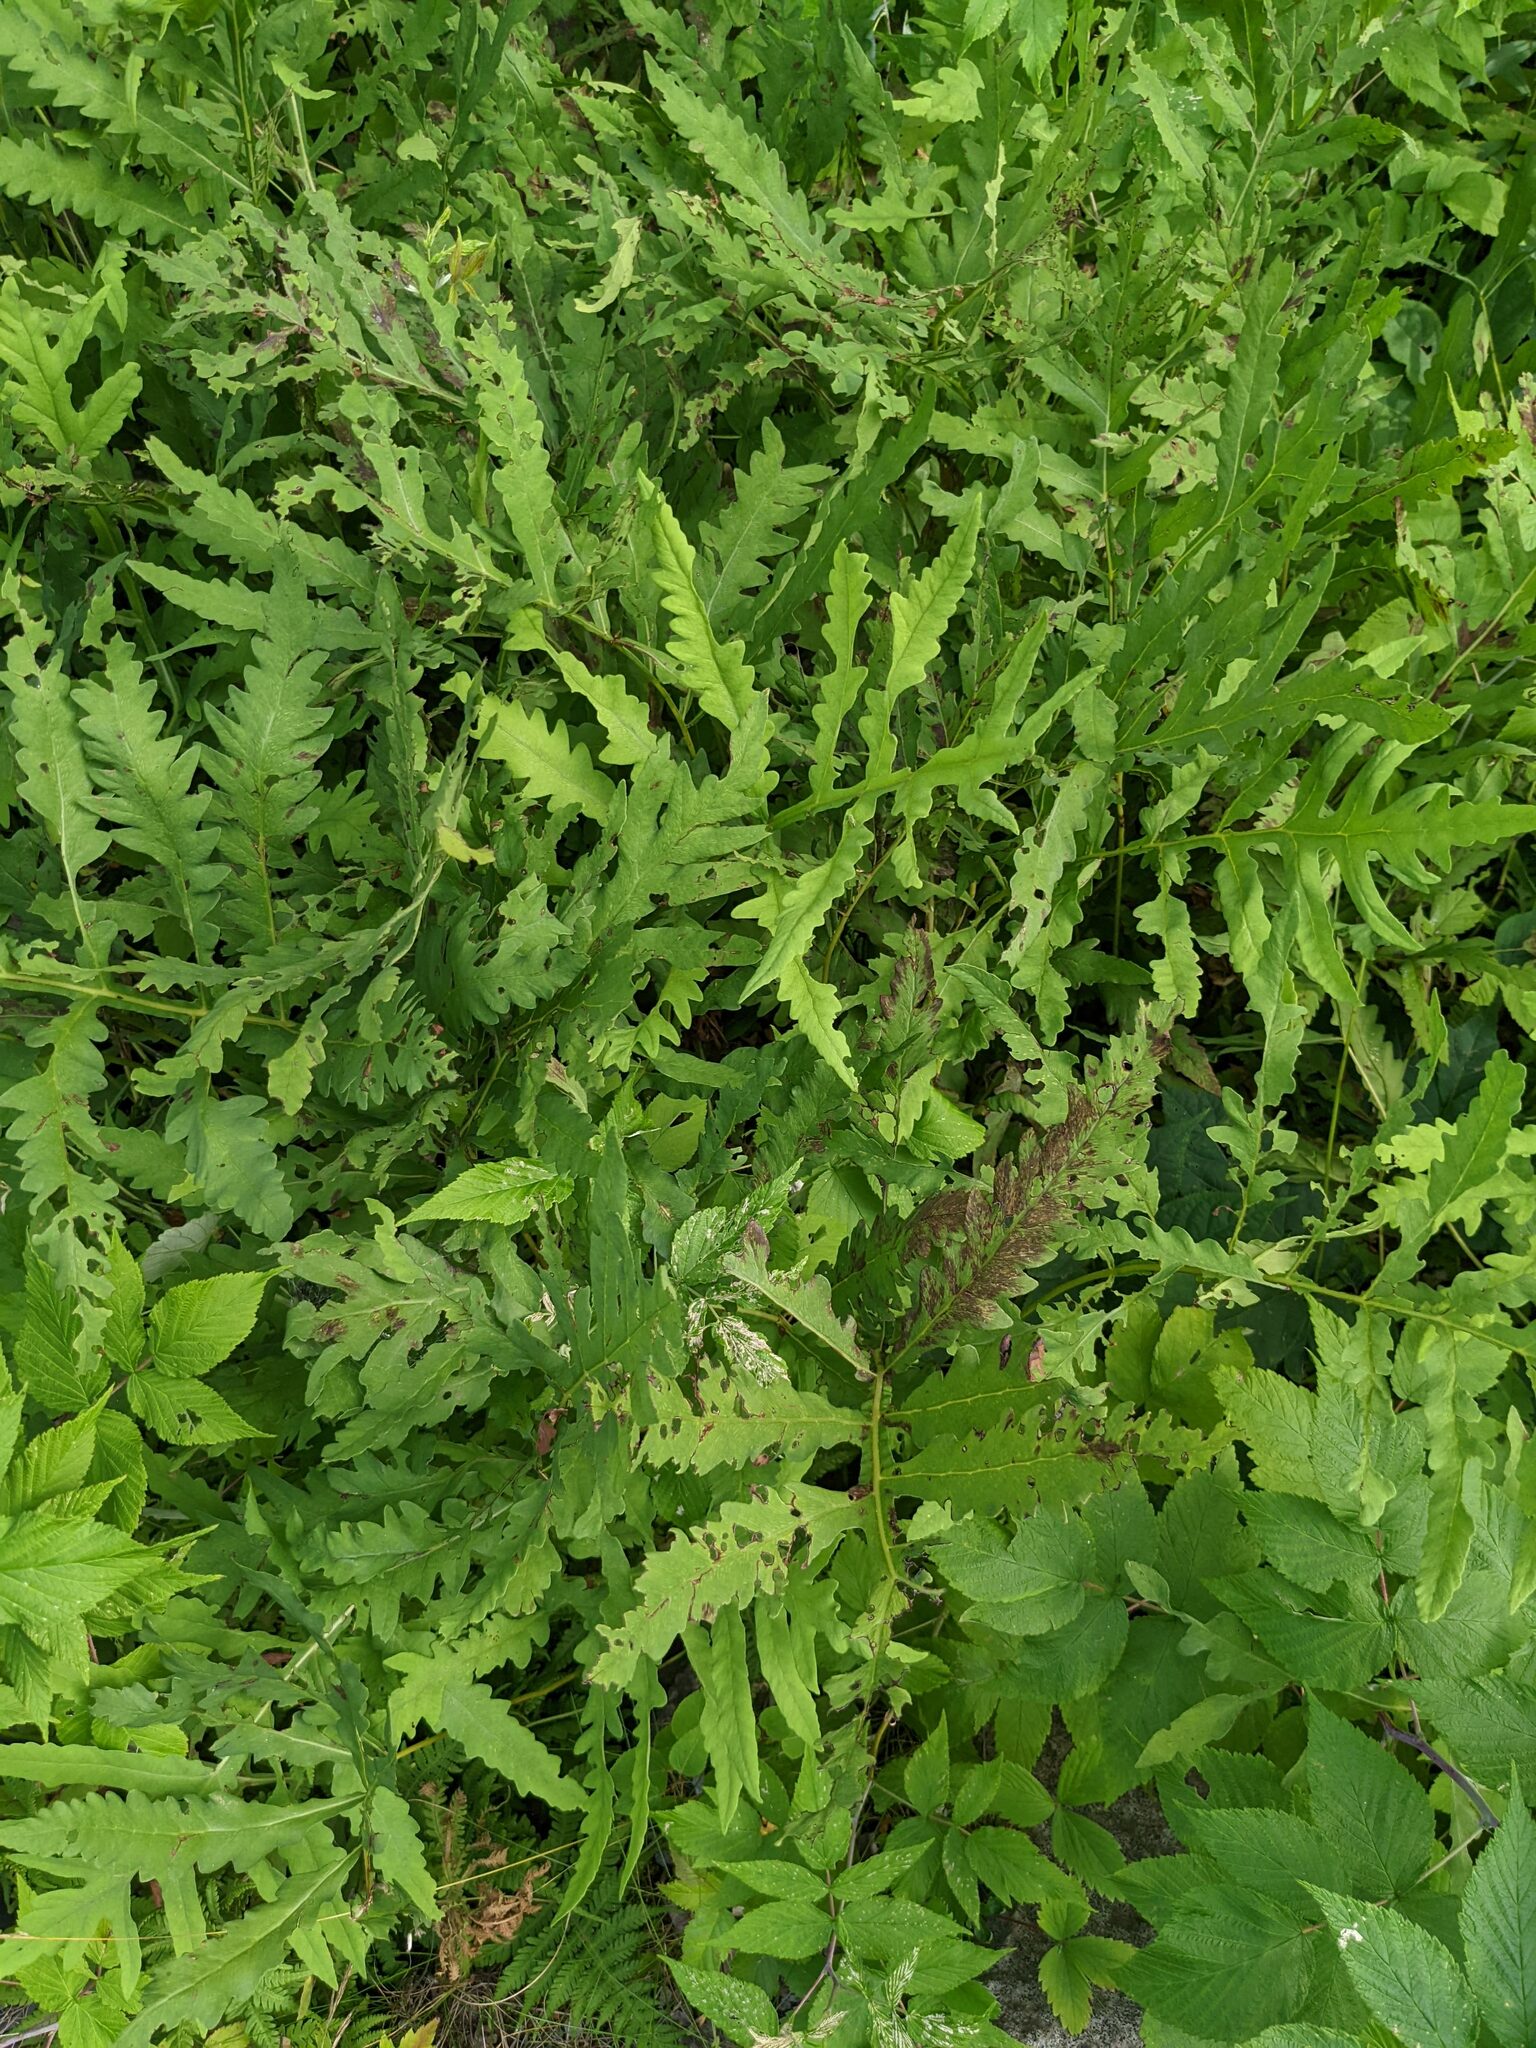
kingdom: Plantae
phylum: Tracheophyta
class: Polypodiopsida
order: Polypodiales
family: Onocleaceae
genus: Onoclea
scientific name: Onoclea sensibilis
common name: Sensitive fern
